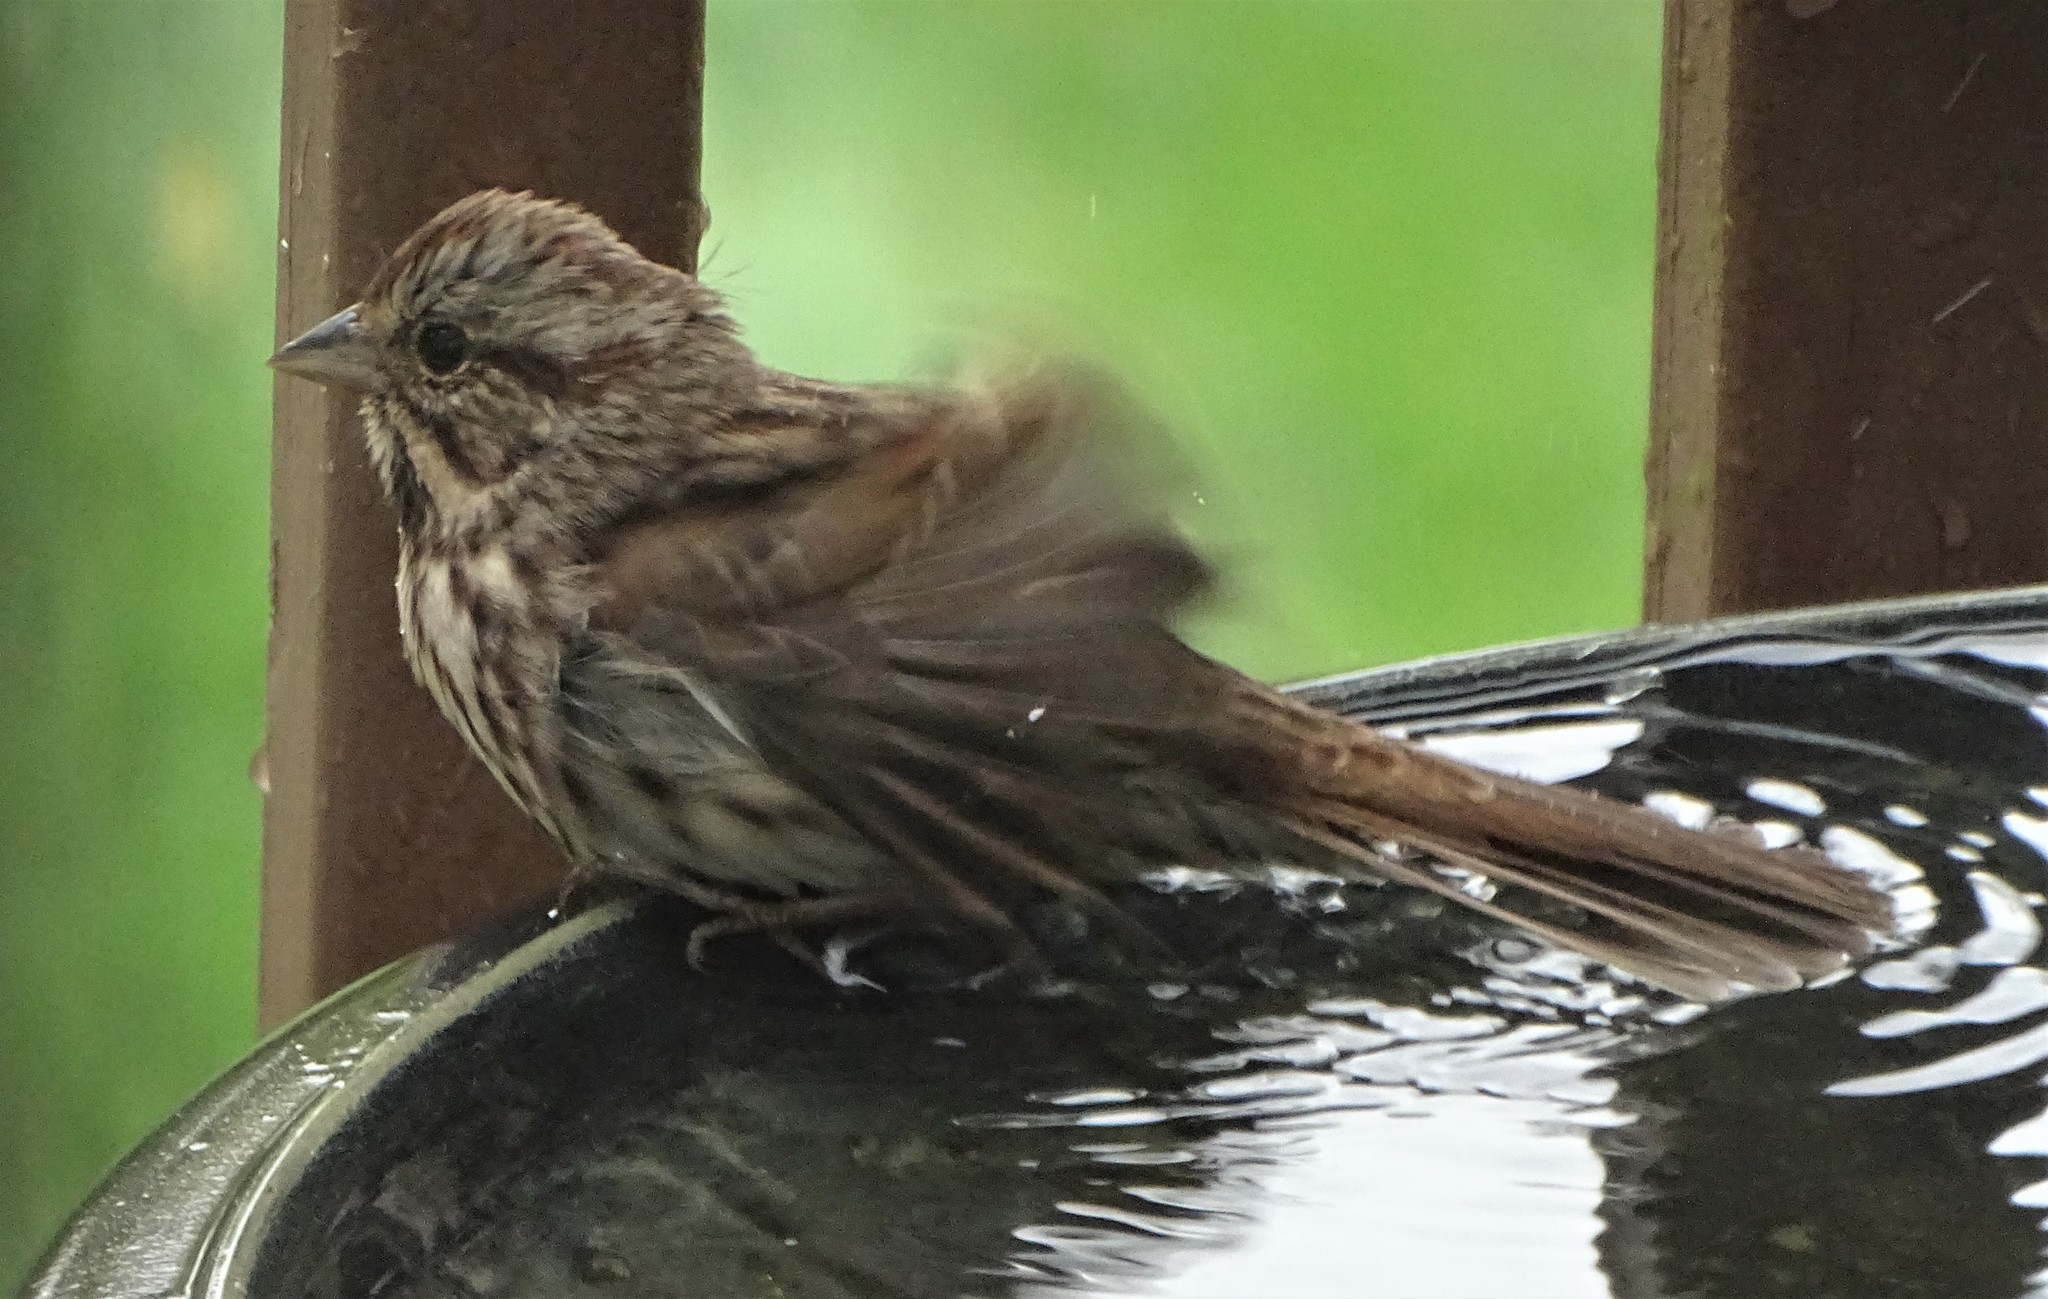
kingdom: Animalia
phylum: Chordata
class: Aves
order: Passeriformes
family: Passerellidae
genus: Melospiza
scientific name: Melospiza melodia
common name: Song sparrow
